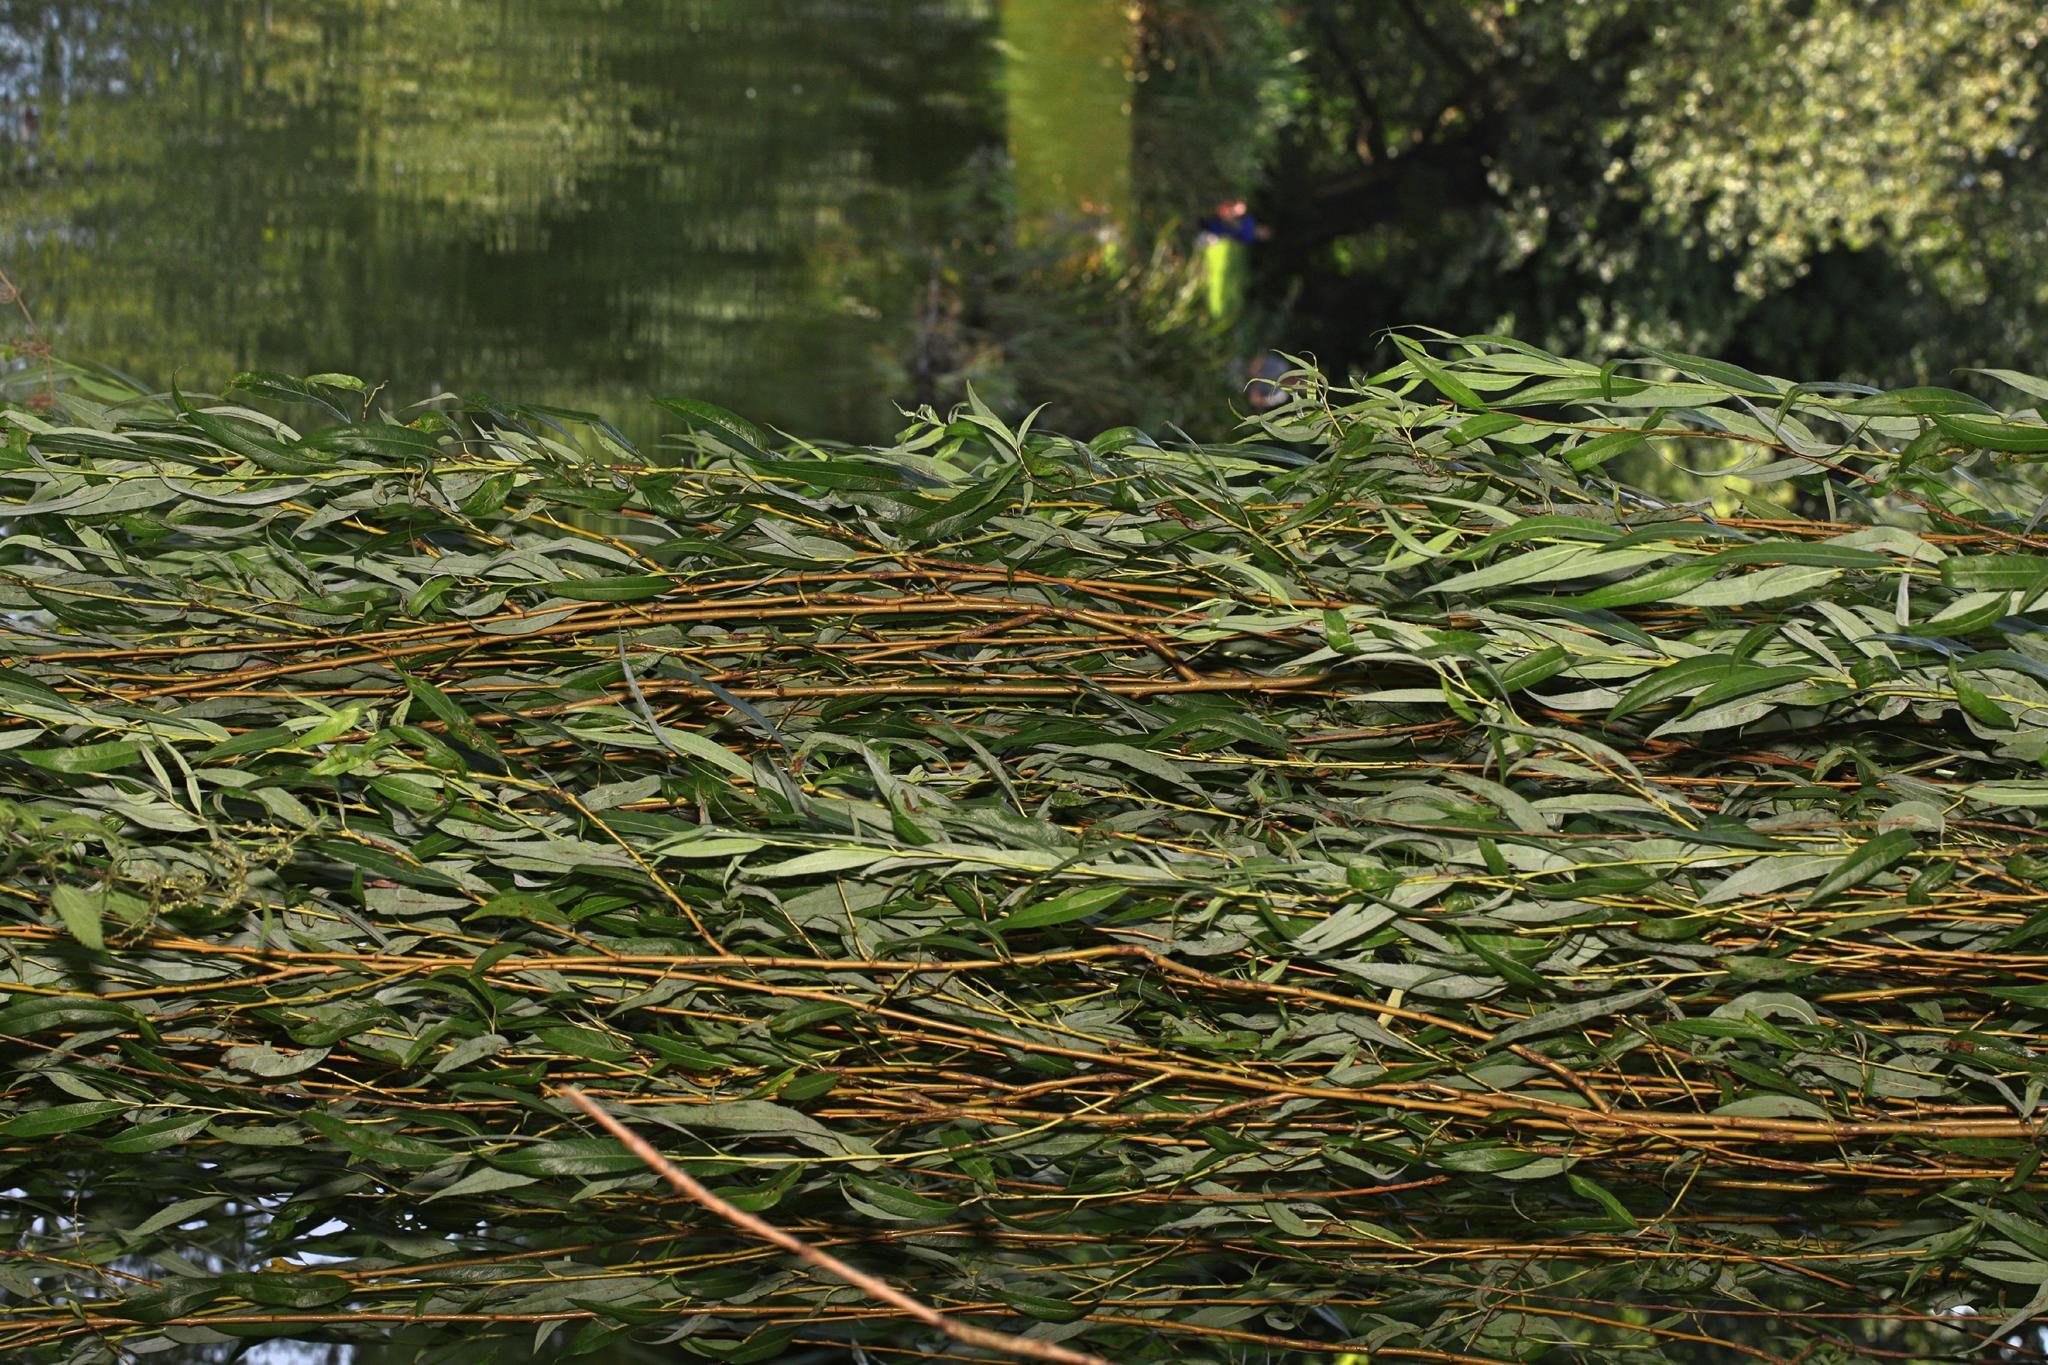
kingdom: Plantae
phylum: Tracheophyta
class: Magnoliopsida
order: Malpighiales
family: Salicaceae
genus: Salix
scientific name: Salix pendulina
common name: Wisconsin weeping willow
